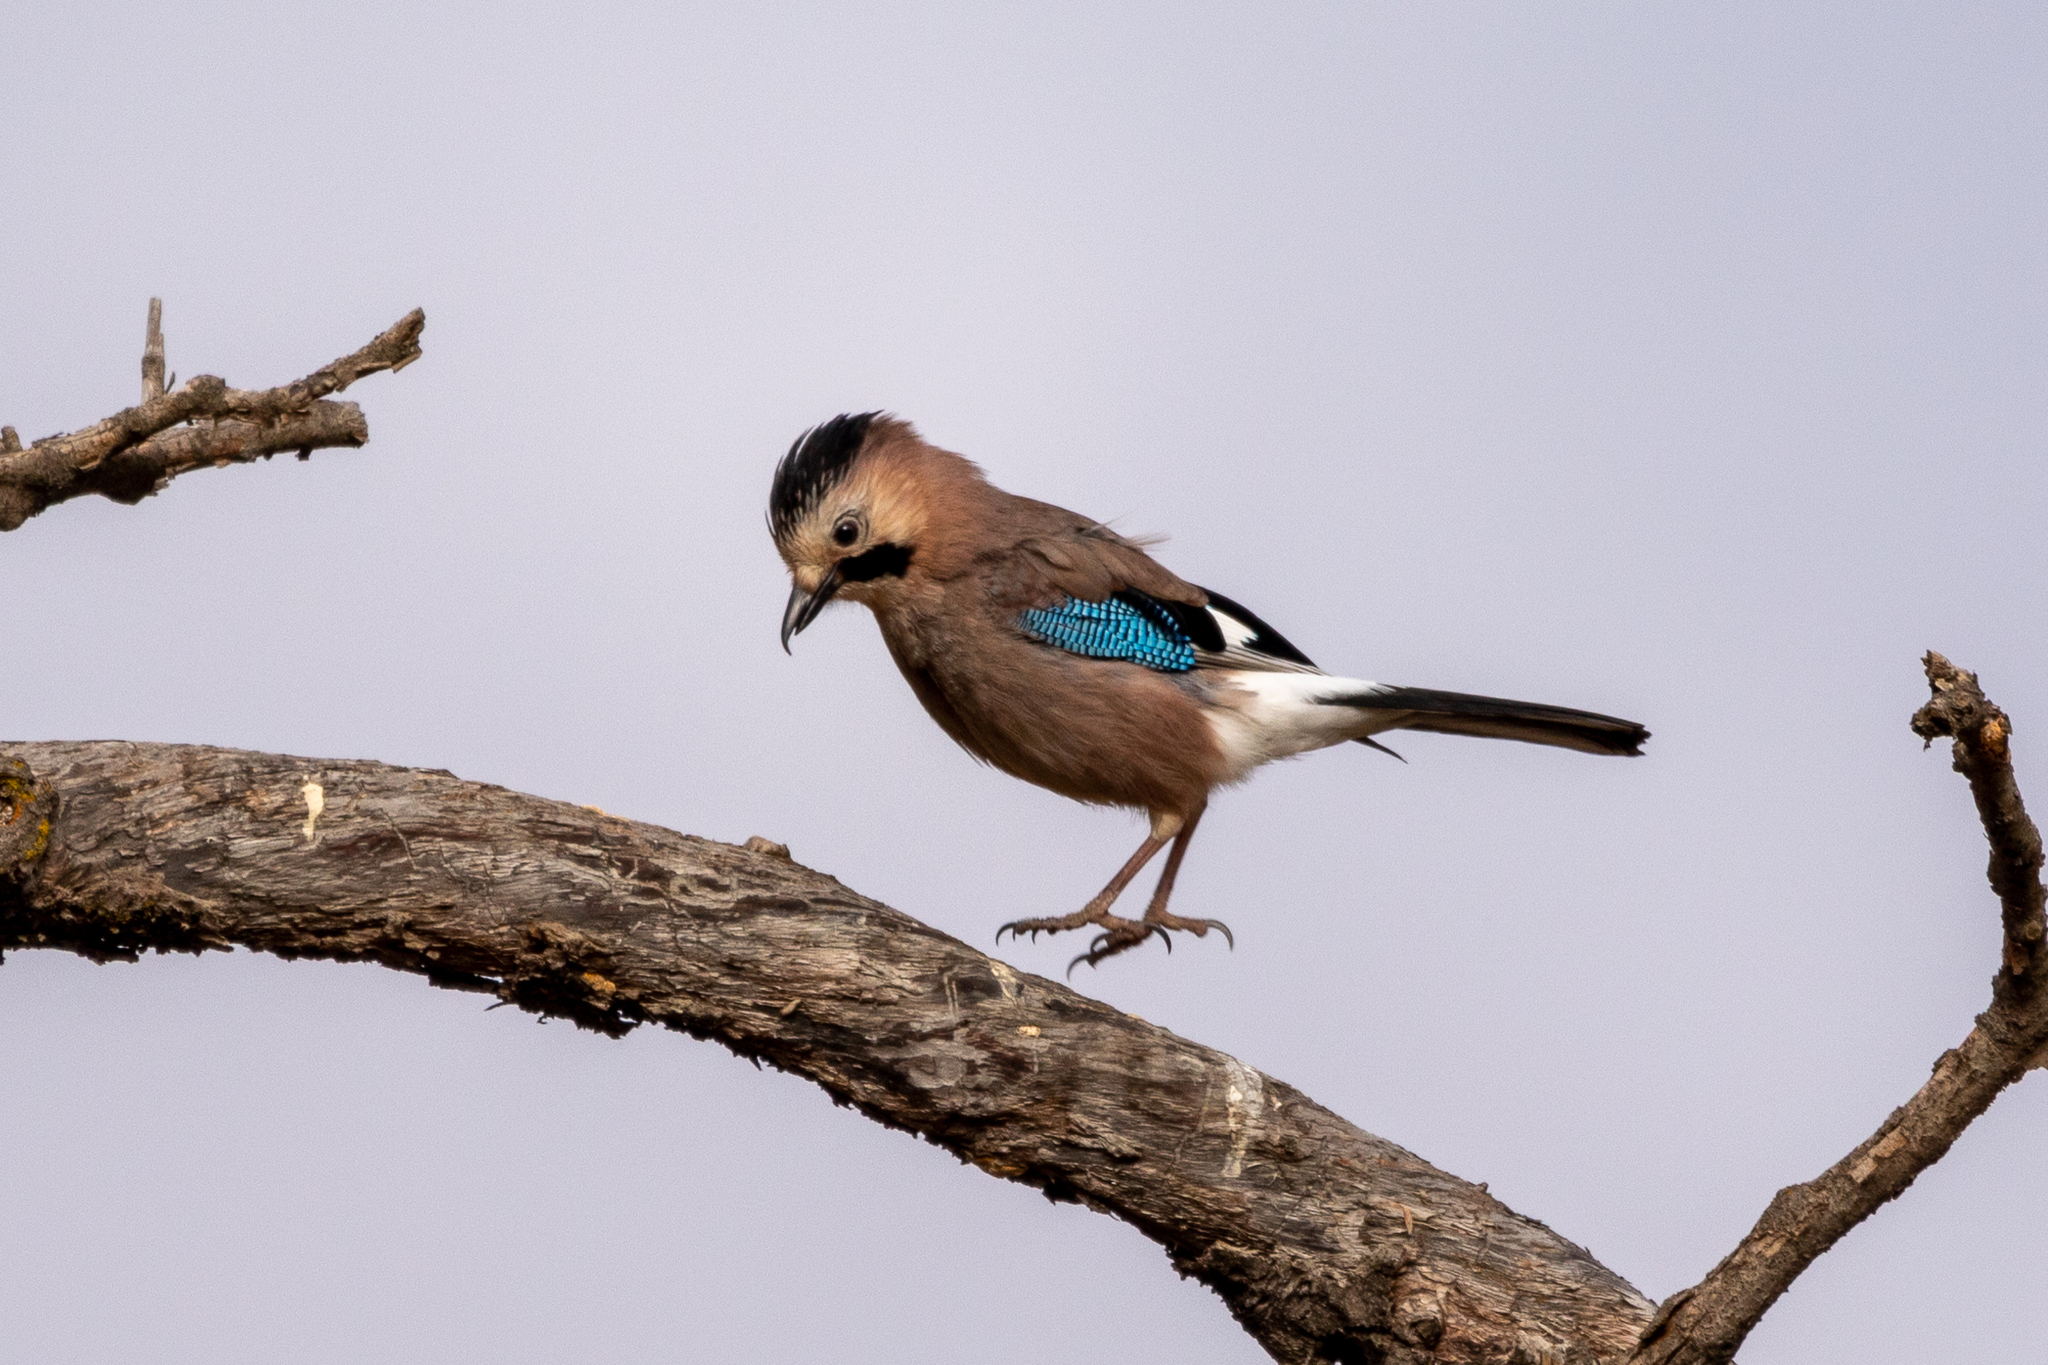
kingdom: Animalia
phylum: Chordata
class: Aves
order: Passeriformes
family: Corvidae
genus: Garrulus
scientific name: Garrulus glandarius
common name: Eurasian jay
